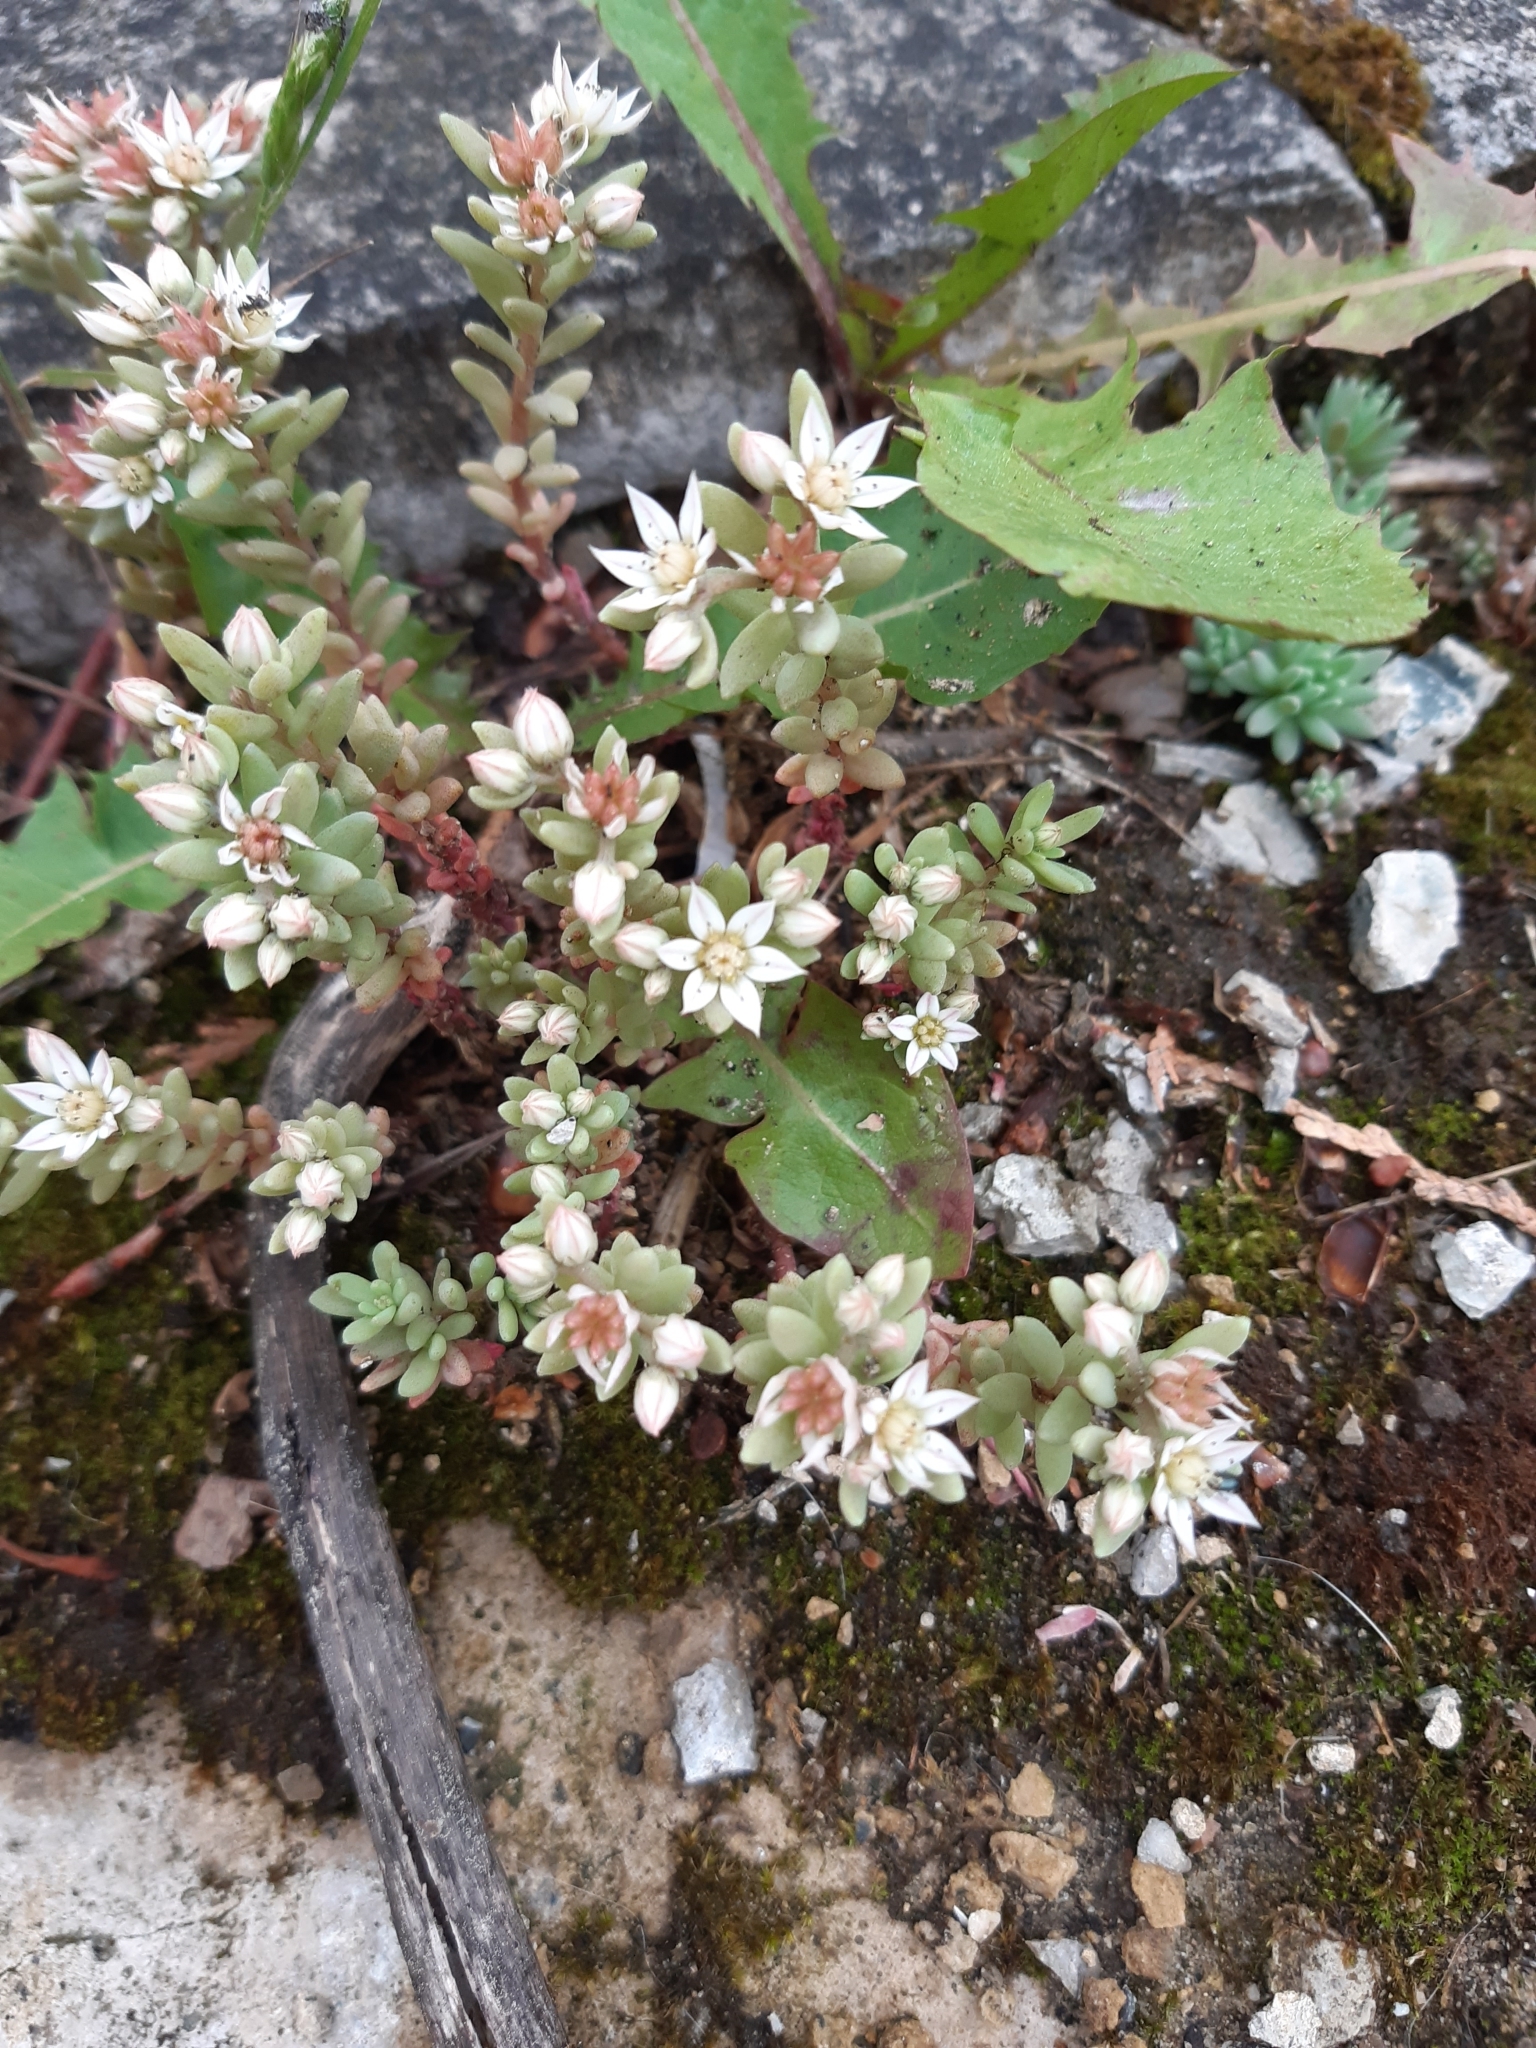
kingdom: Plantae
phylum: Tracheophyta
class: Magnoliopsida
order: Saxifragales
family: Crassulaceae
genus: Sedum
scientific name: Sedum hispanicum
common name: Spanish stonecrop
